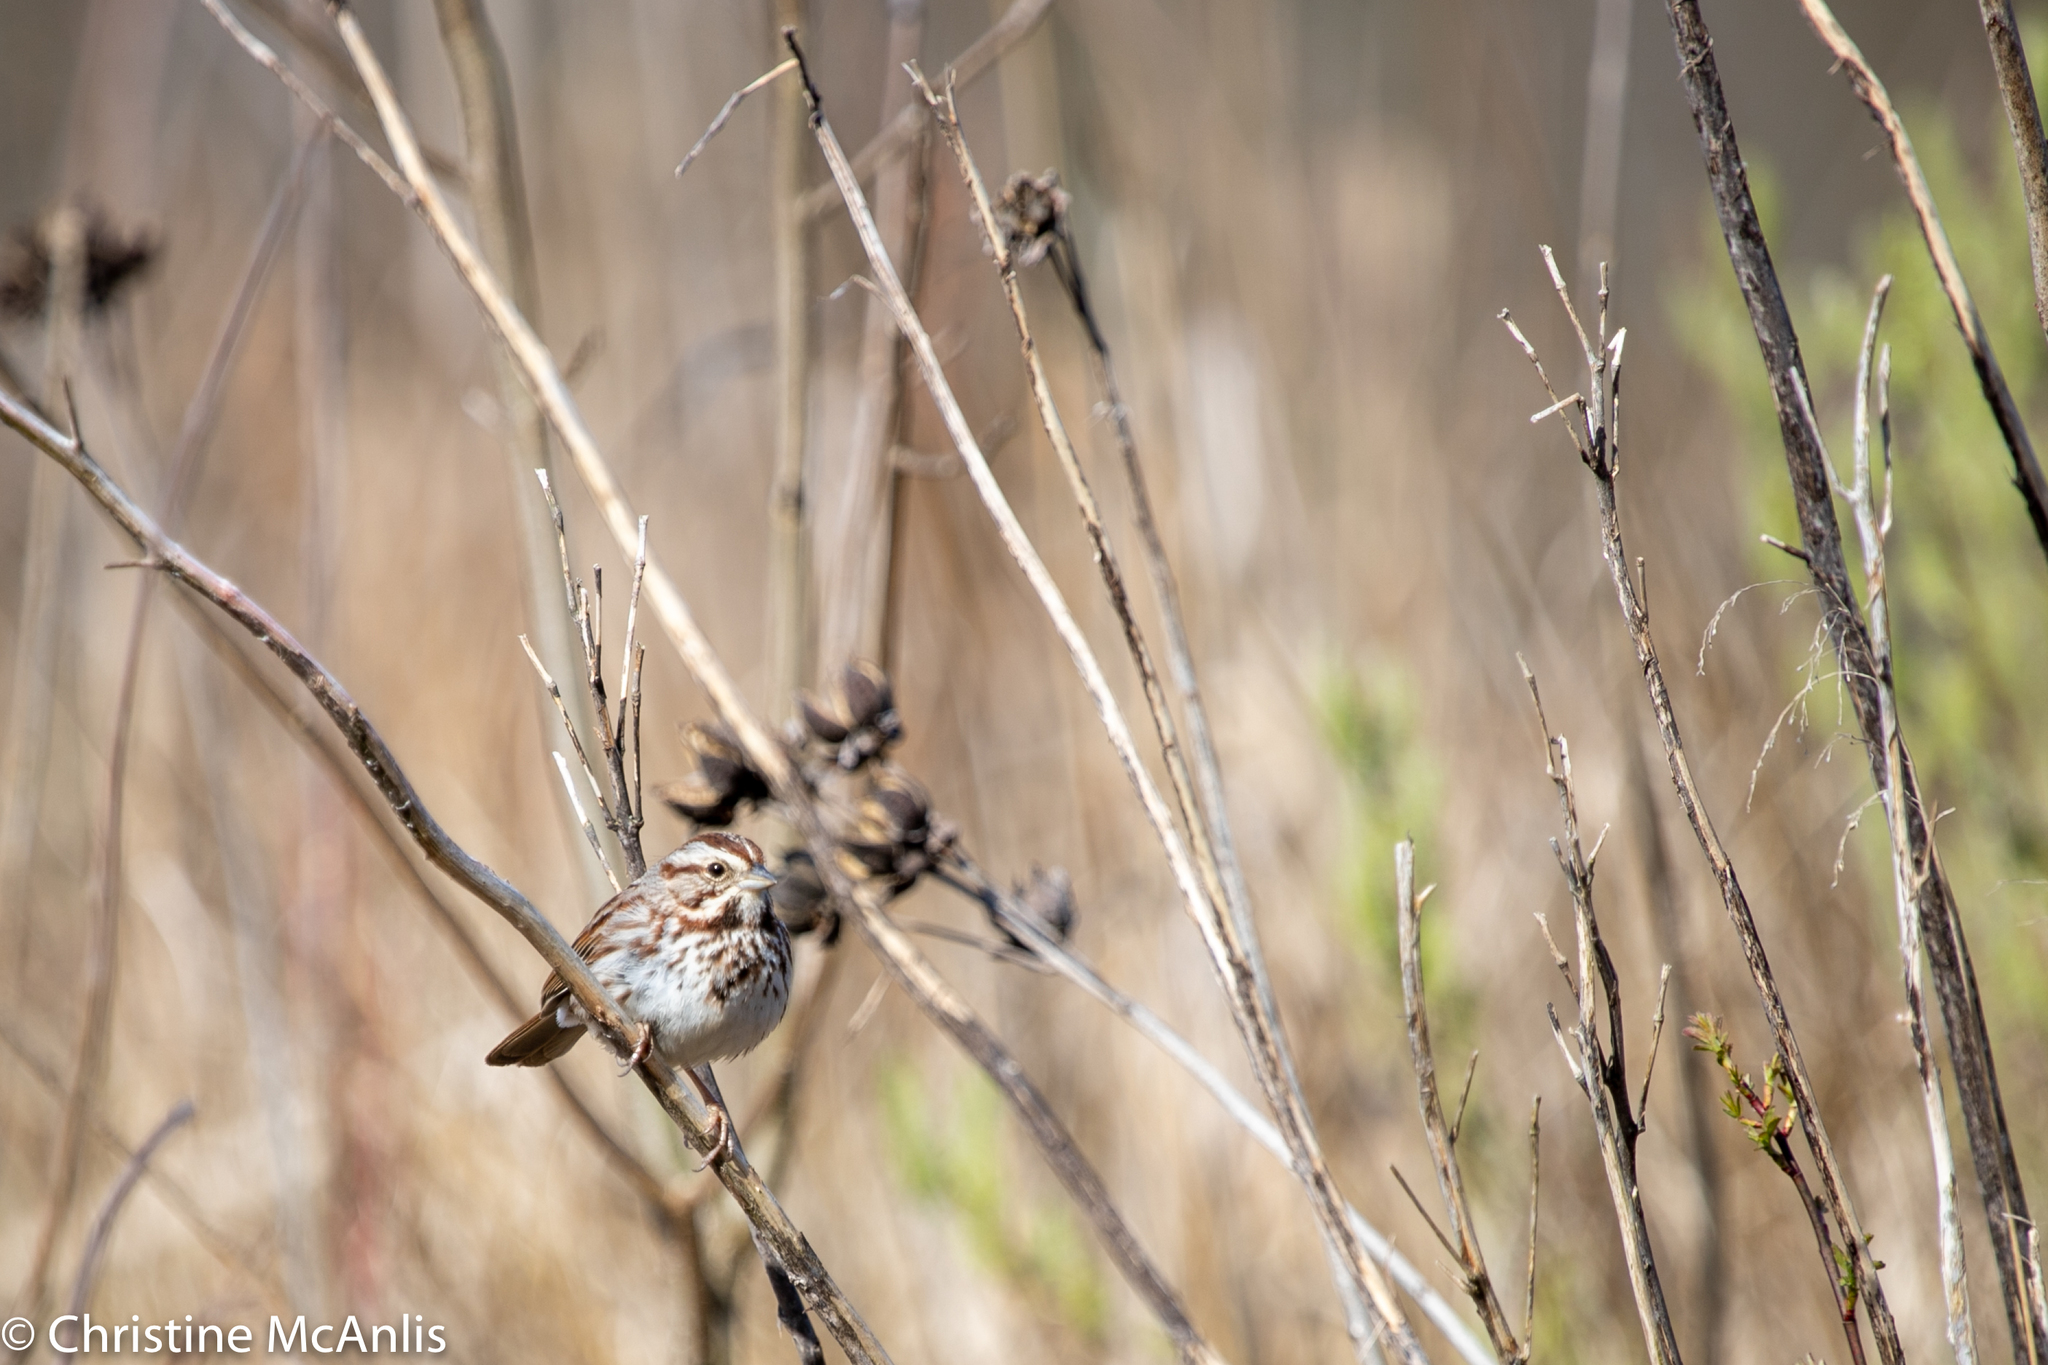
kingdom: Animalia
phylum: Chordata
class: Aves
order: Passeriformes
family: Passerellidae
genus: Melospiza
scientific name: Melospiza melodia
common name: Song sparrow
